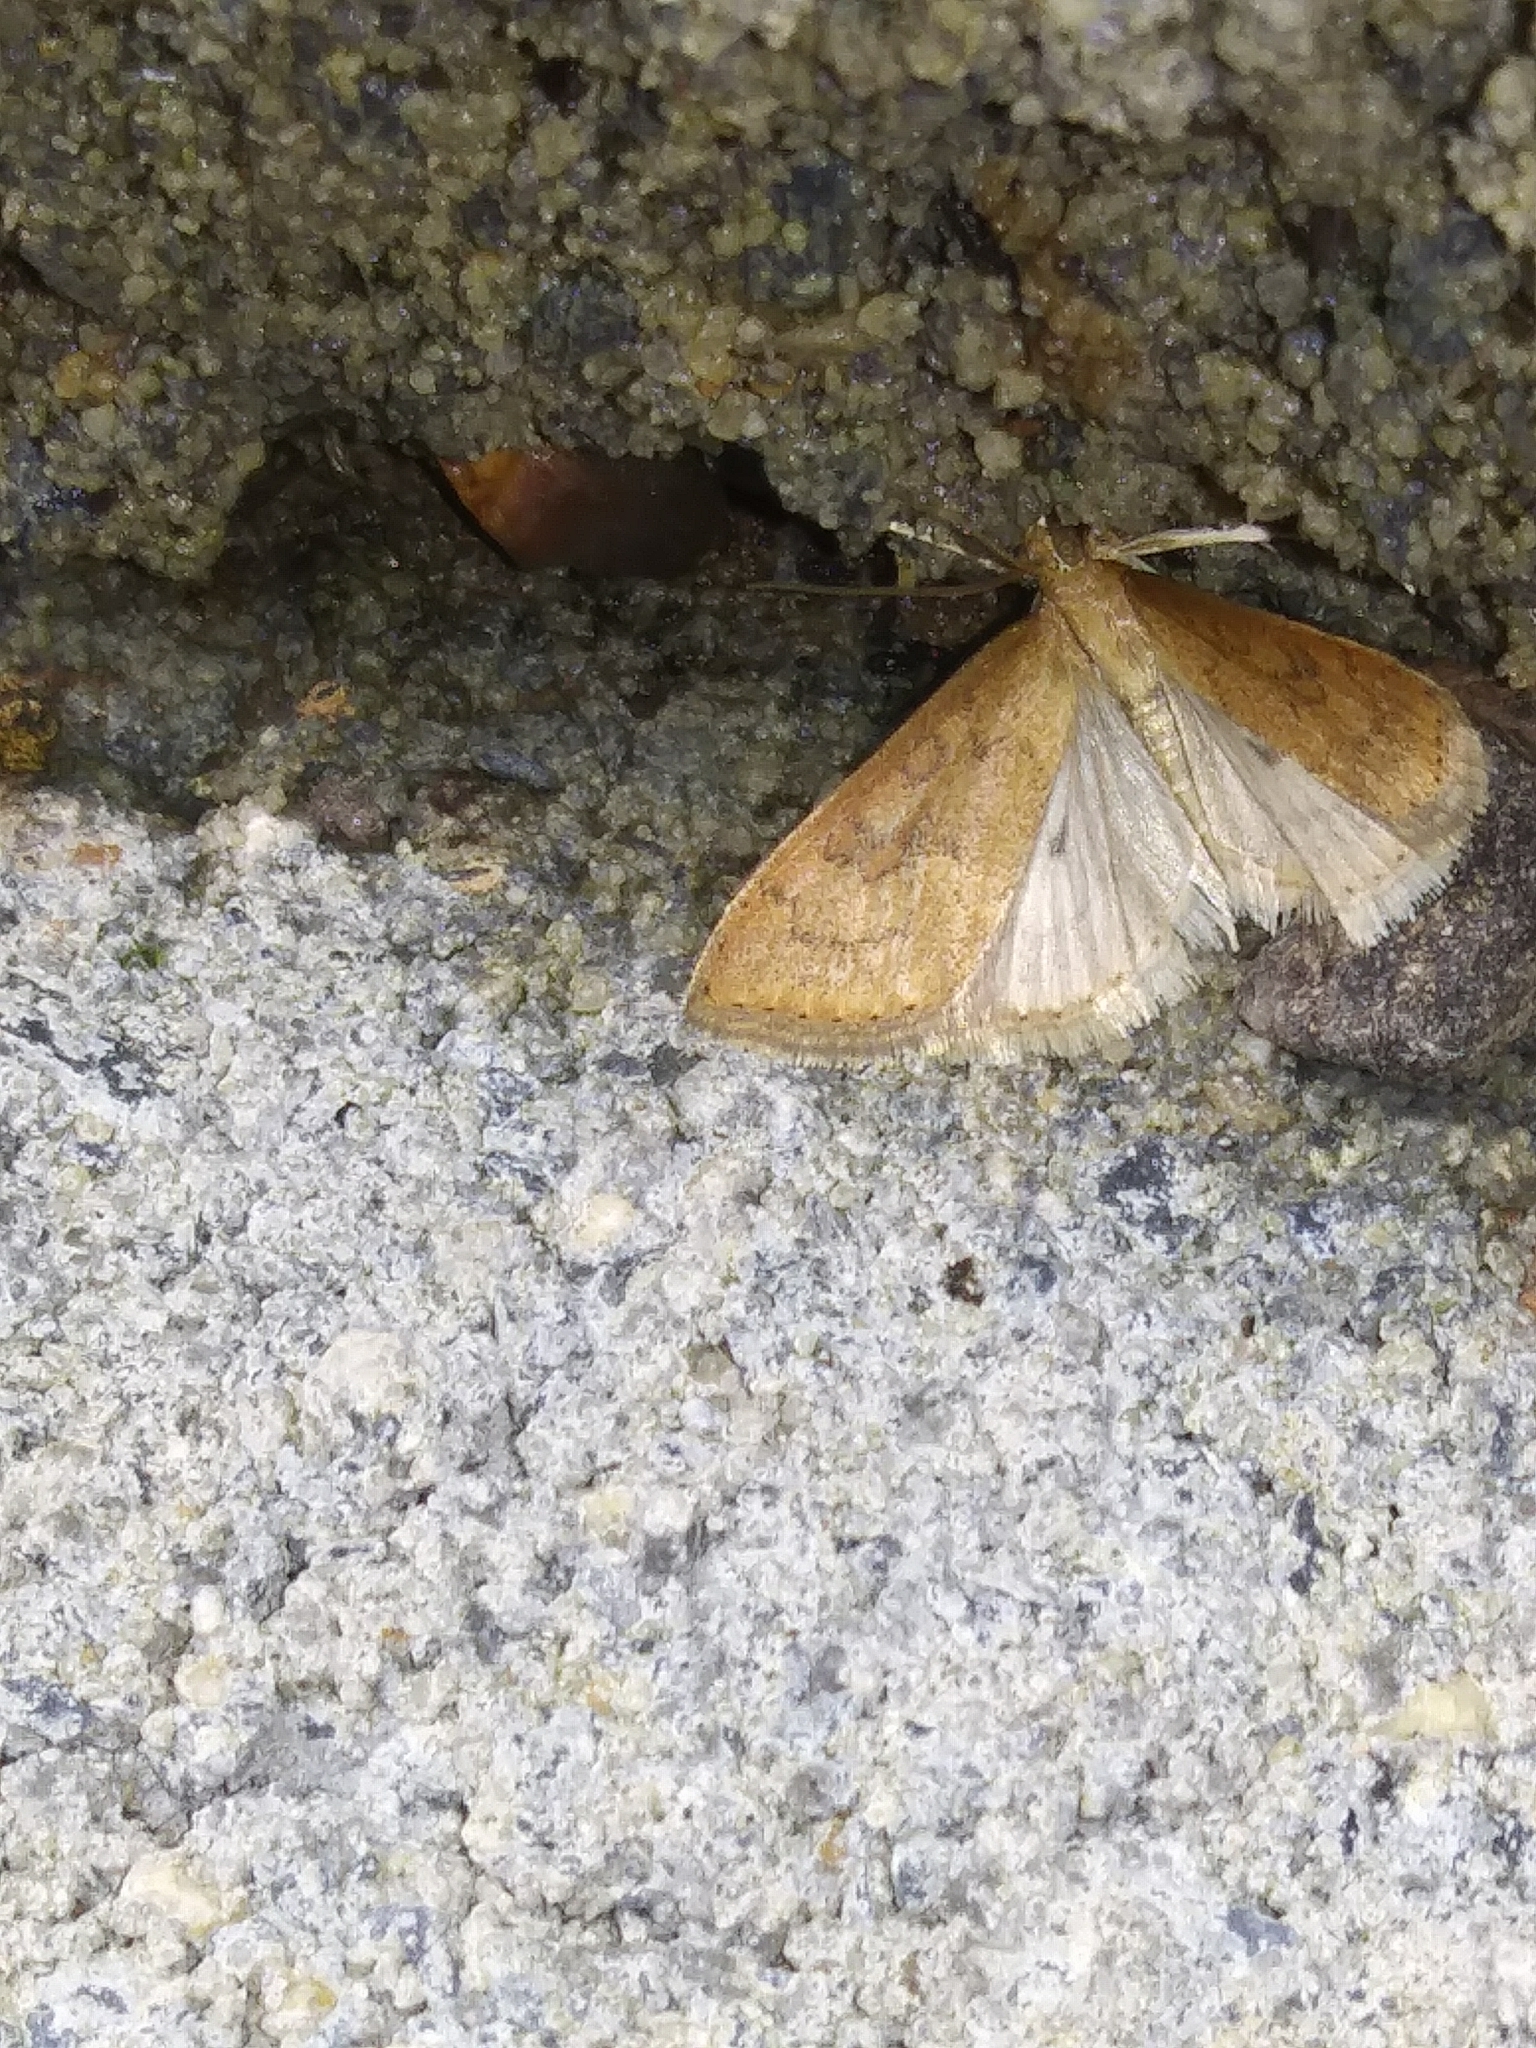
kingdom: Animalia
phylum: Arthropoda
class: Insecta
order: Lepidoptera
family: Crambidae
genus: Udea
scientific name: Udea rubigalis
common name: Celery leaftier moth
